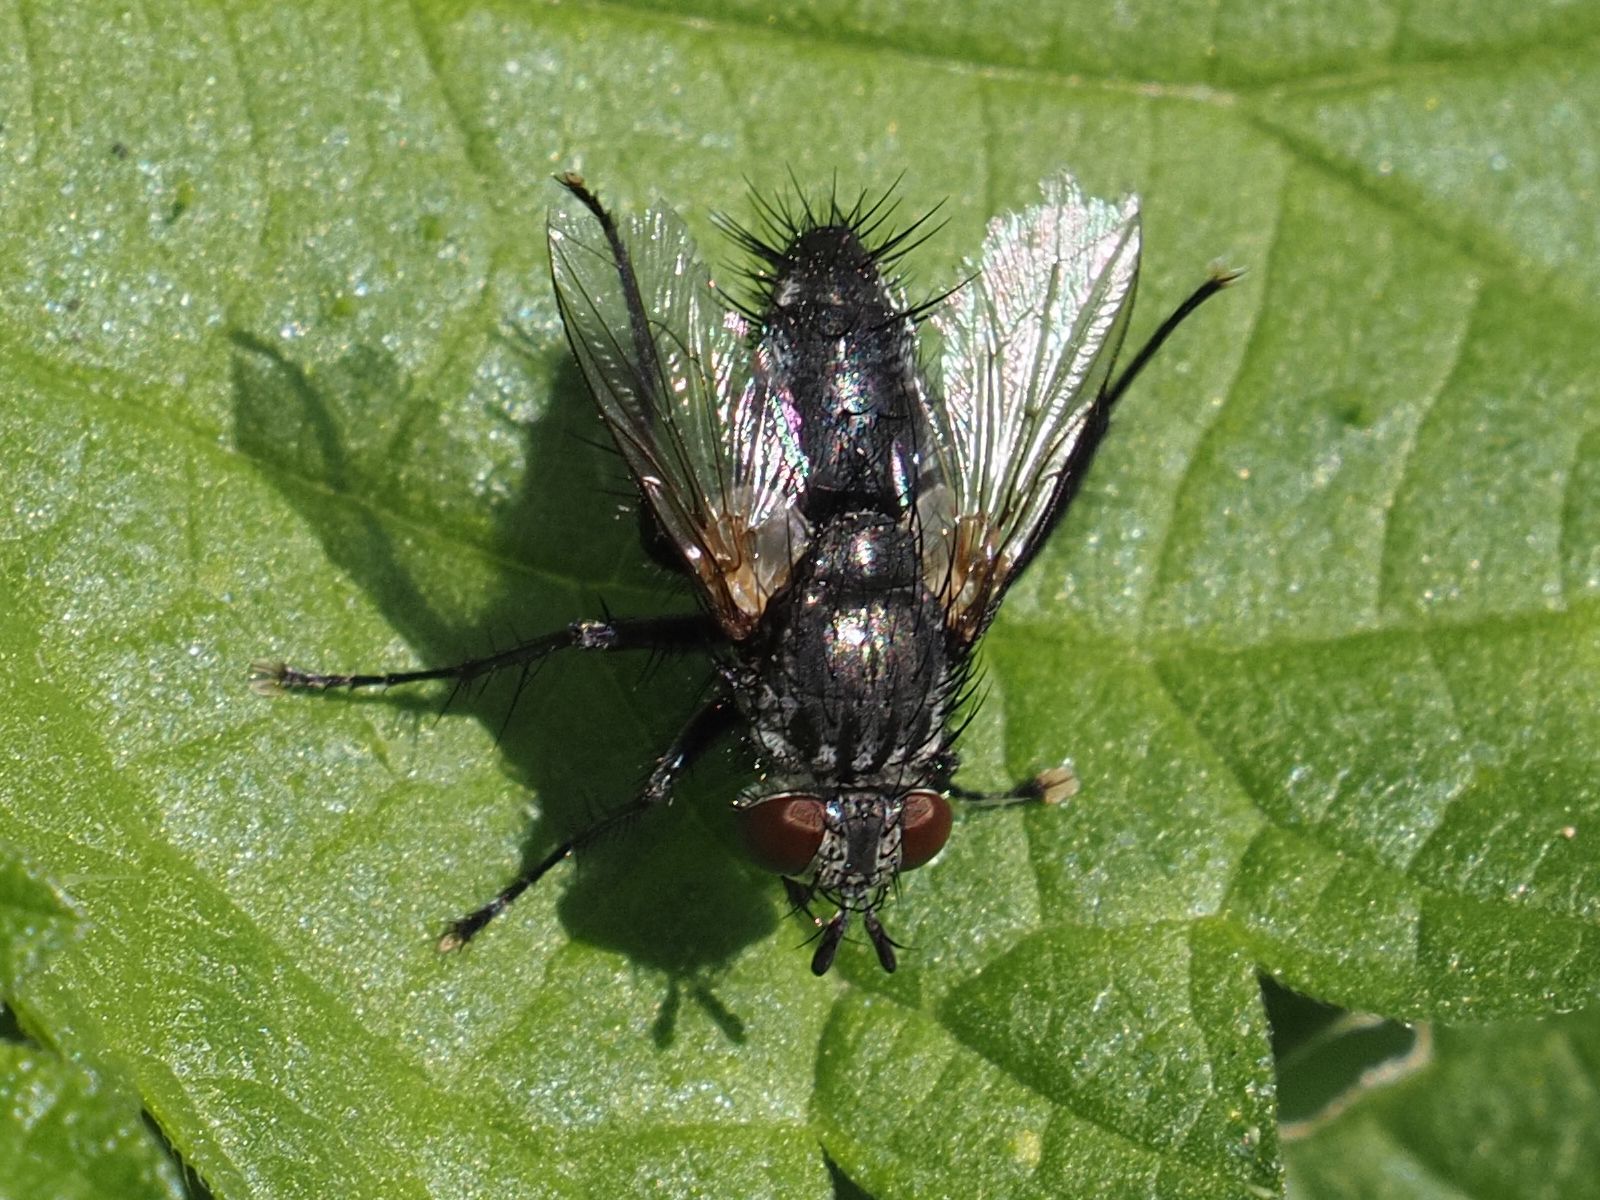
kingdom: Animalia
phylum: Arthropoda
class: Insecta
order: Diptera
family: Tachinidae
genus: Voria
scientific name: Voria ruralis
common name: Parasitic fly
